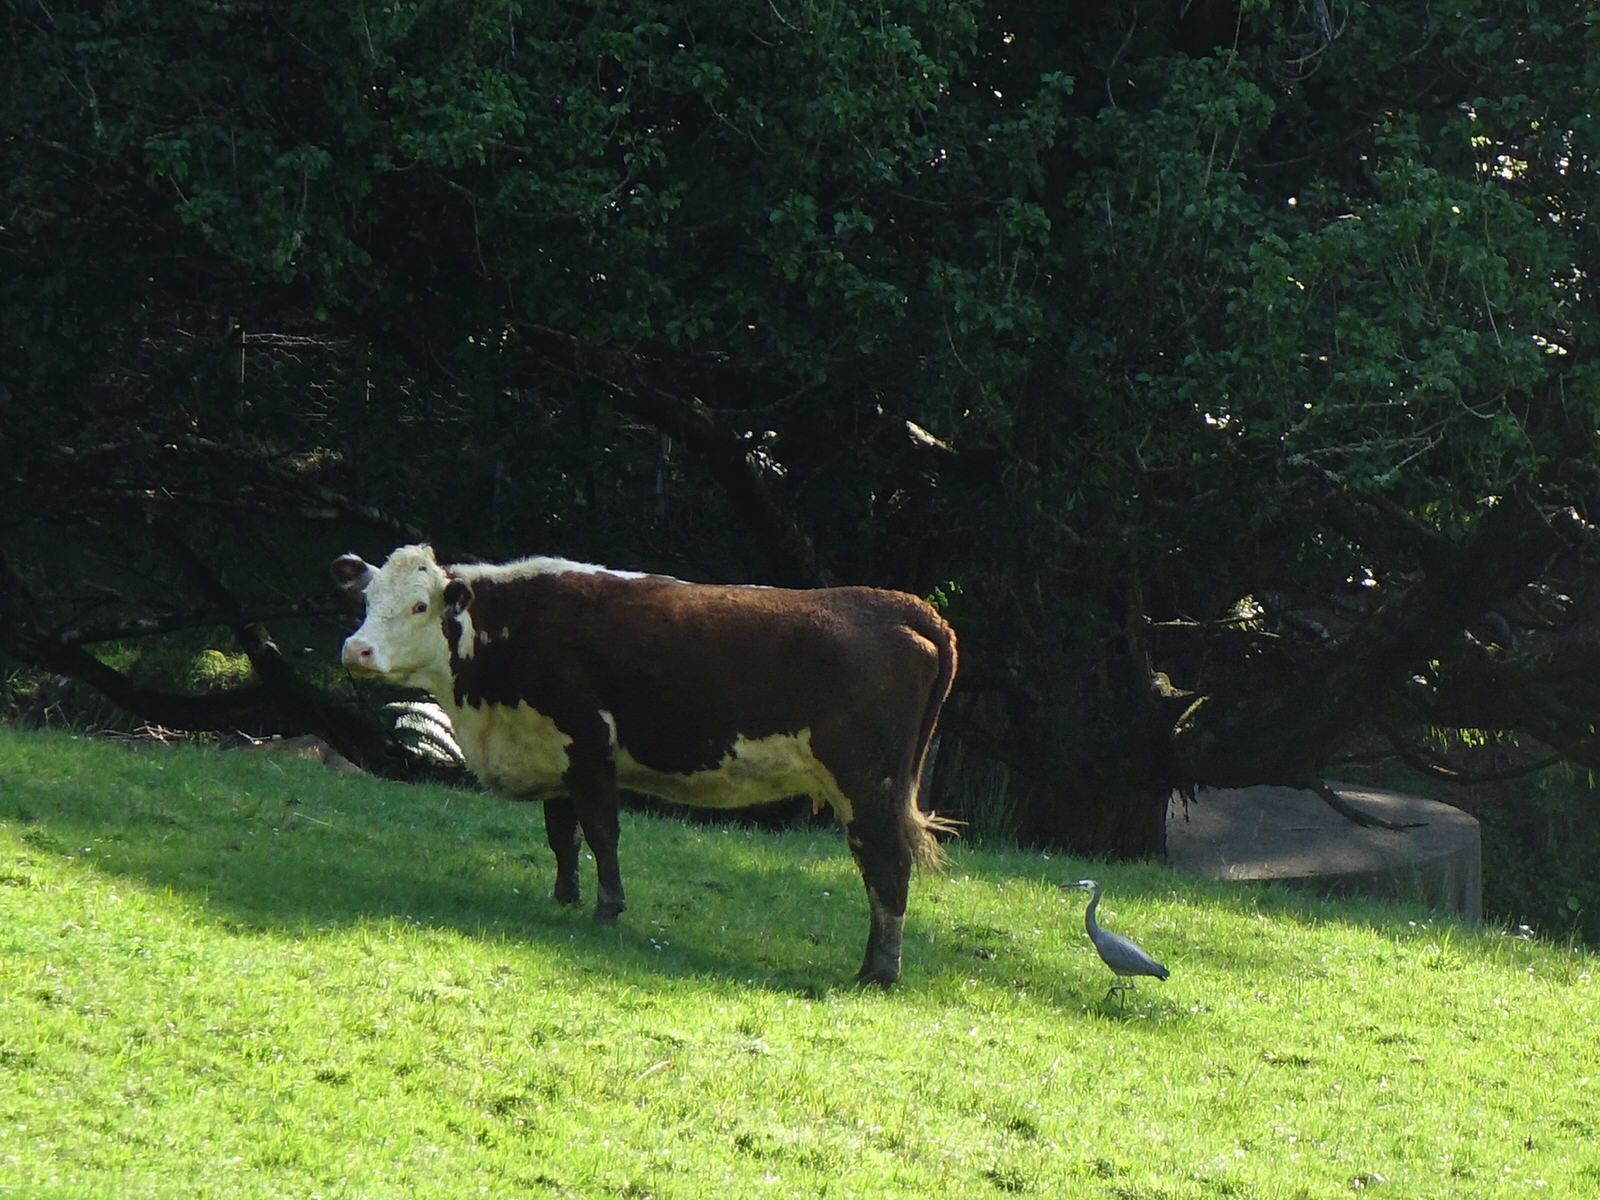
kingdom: Animalia
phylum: Chordata
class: Aves
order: Pelecaniformes
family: Ardeidae
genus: Egretta
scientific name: Egretta novaehollandiae
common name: White-faced heron
